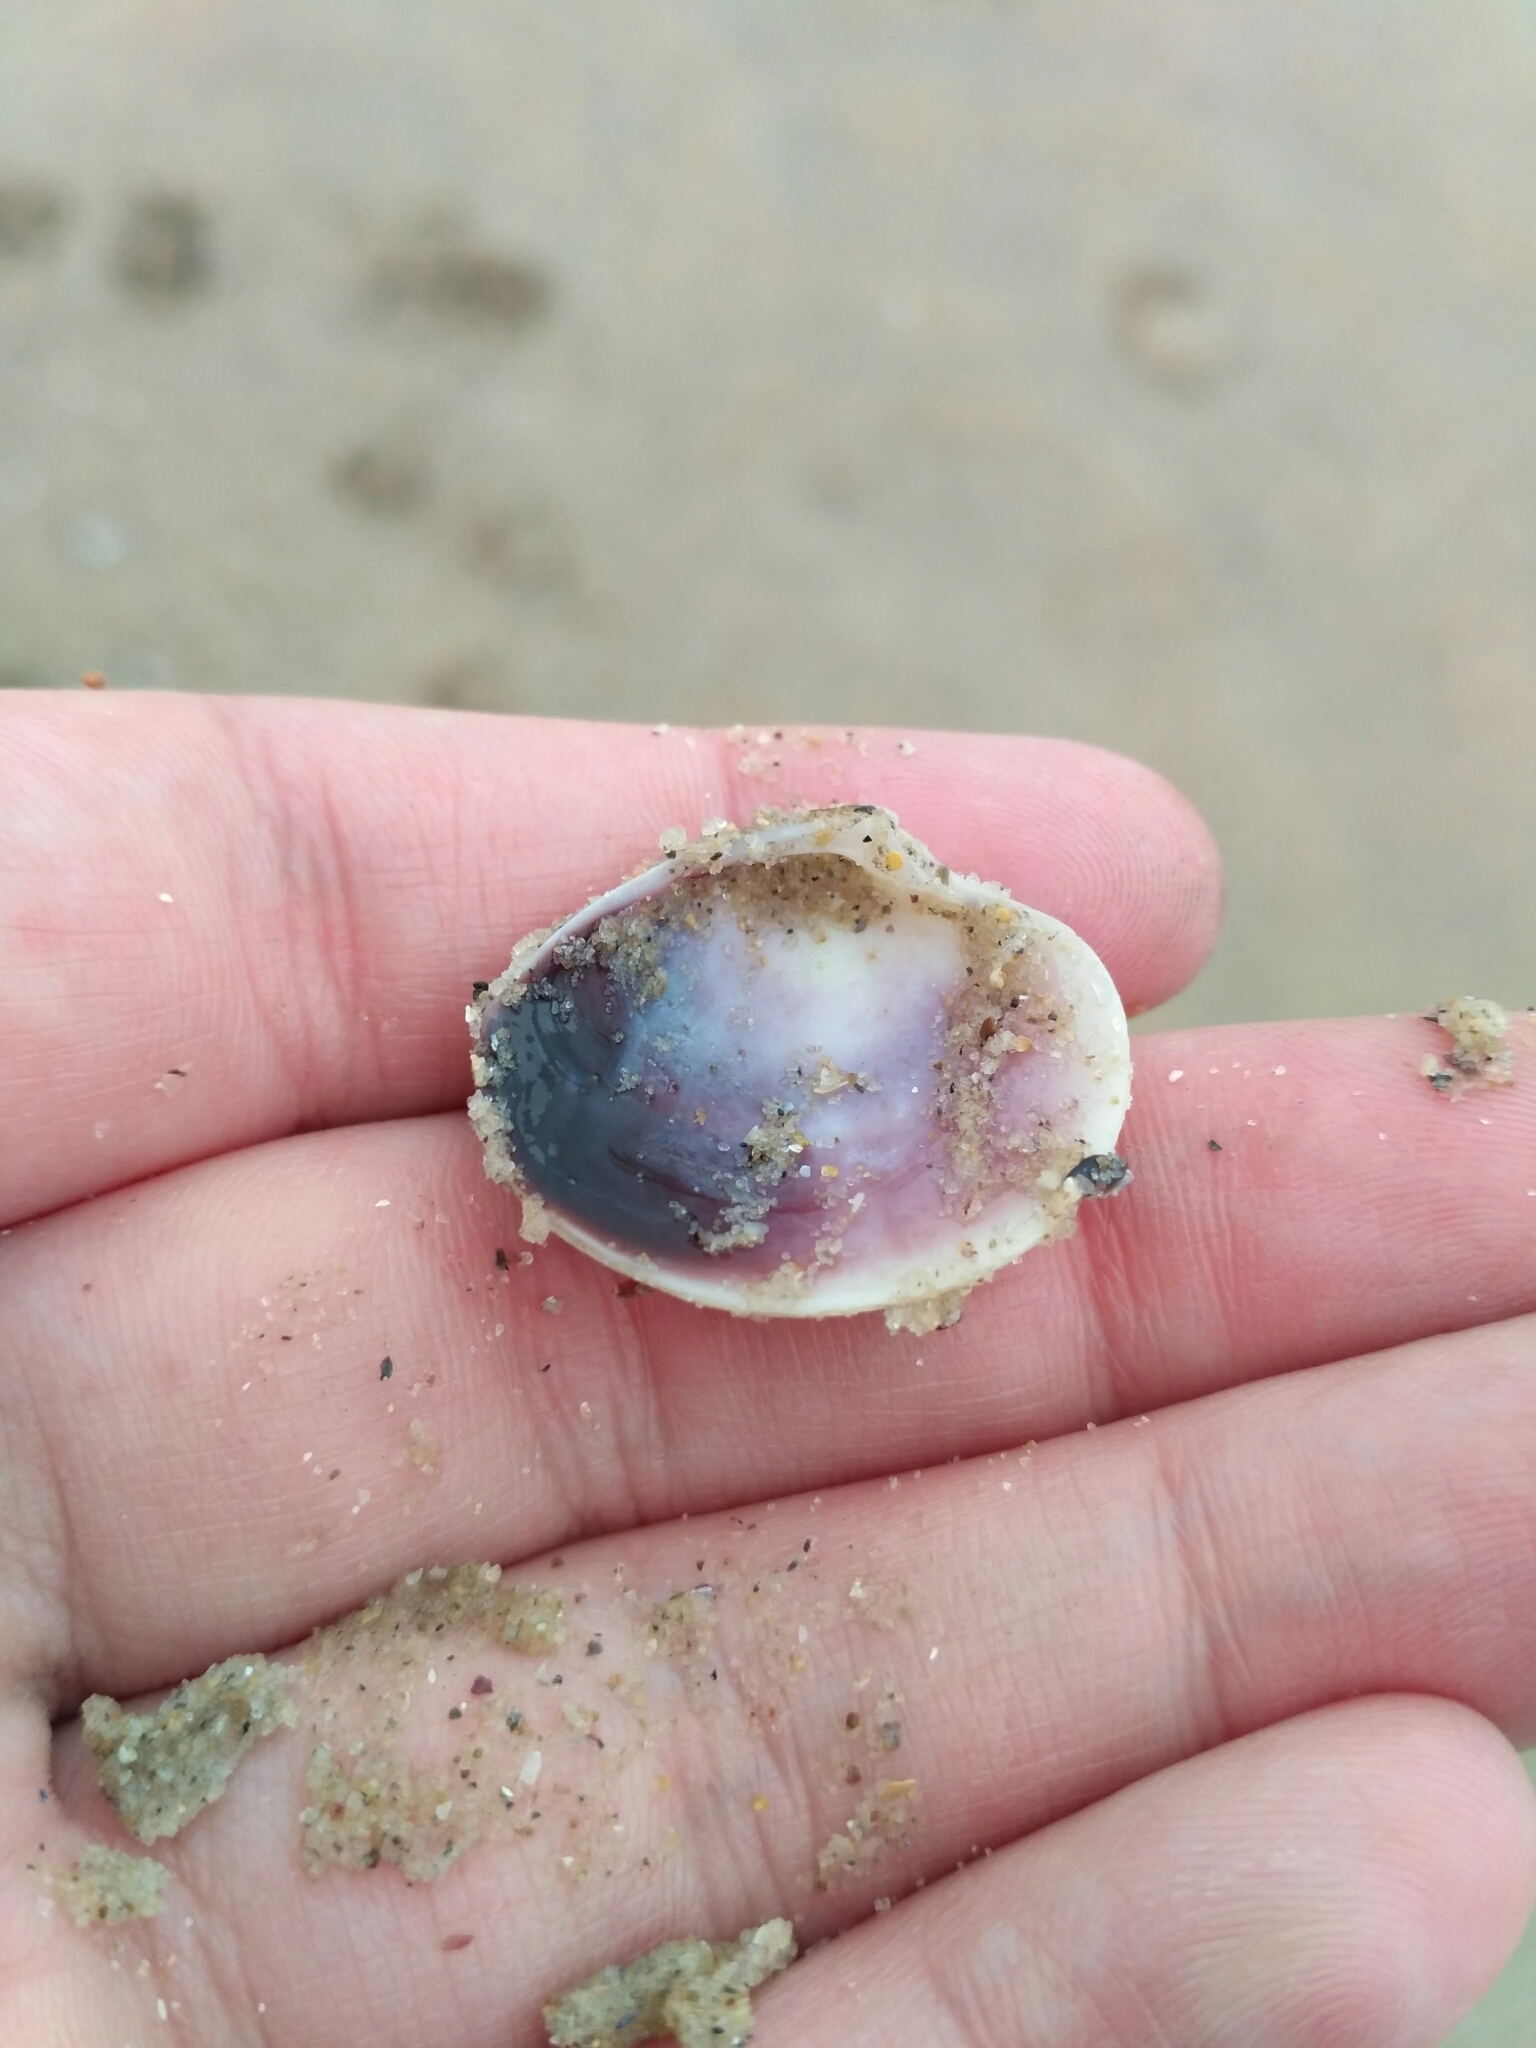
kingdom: Animalia
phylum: Mollusca
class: Bivalvia
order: Venerida
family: Veneridae
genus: Chamelea
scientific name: Chamelea gallina
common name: Chicken venus
